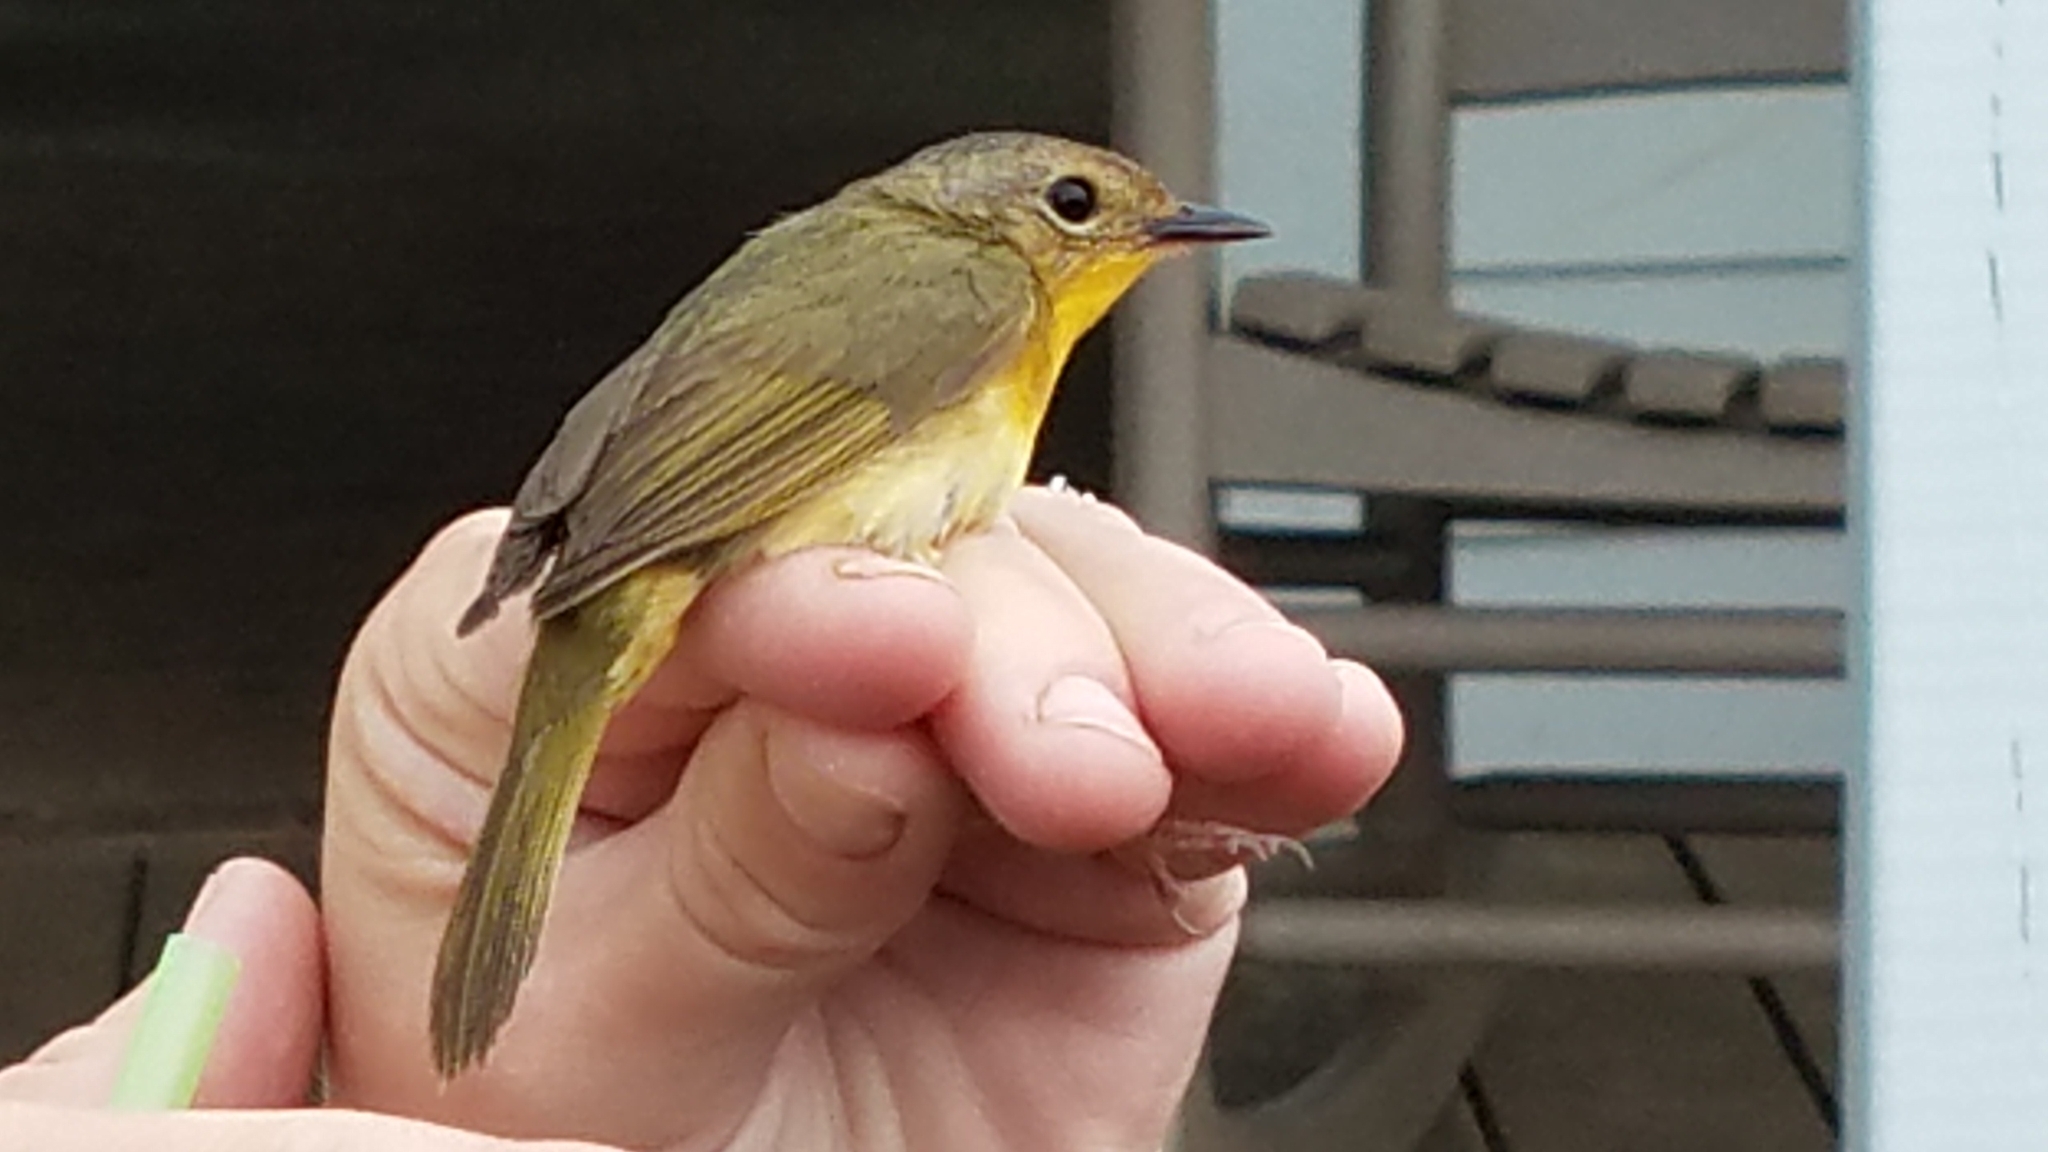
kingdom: Animalia
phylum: Chordata
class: Aves
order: Passeriformes
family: Parulidae
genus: Geothlypis
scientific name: Geothlypis trichas
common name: Common yellowthroat
